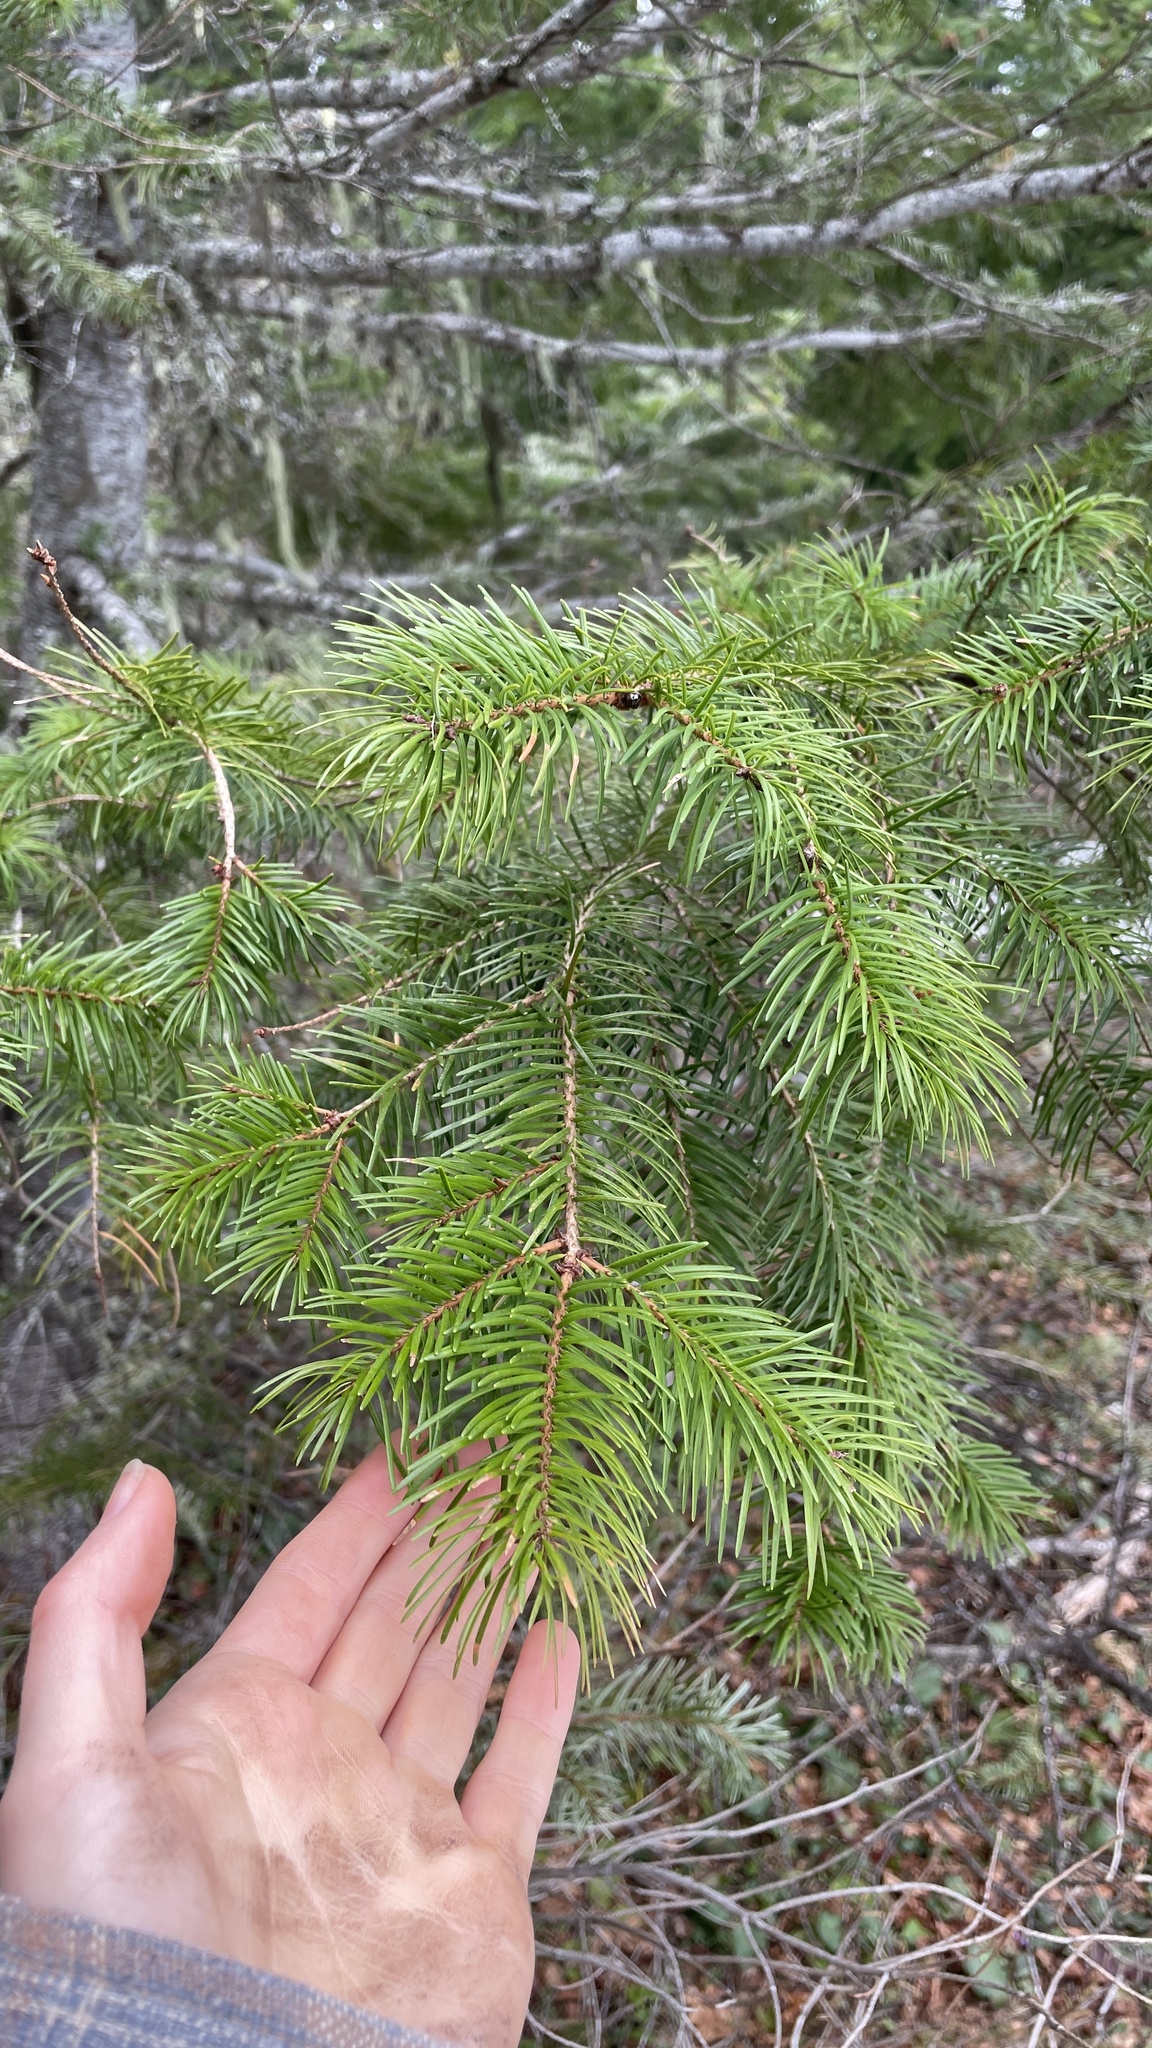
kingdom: Plantae
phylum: Tracheophyta
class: Pinopsida
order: Pinales
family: Pinaceae
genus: Pseudotsuga
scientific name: Pseudotsuga menziesii
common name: Douglas fir
